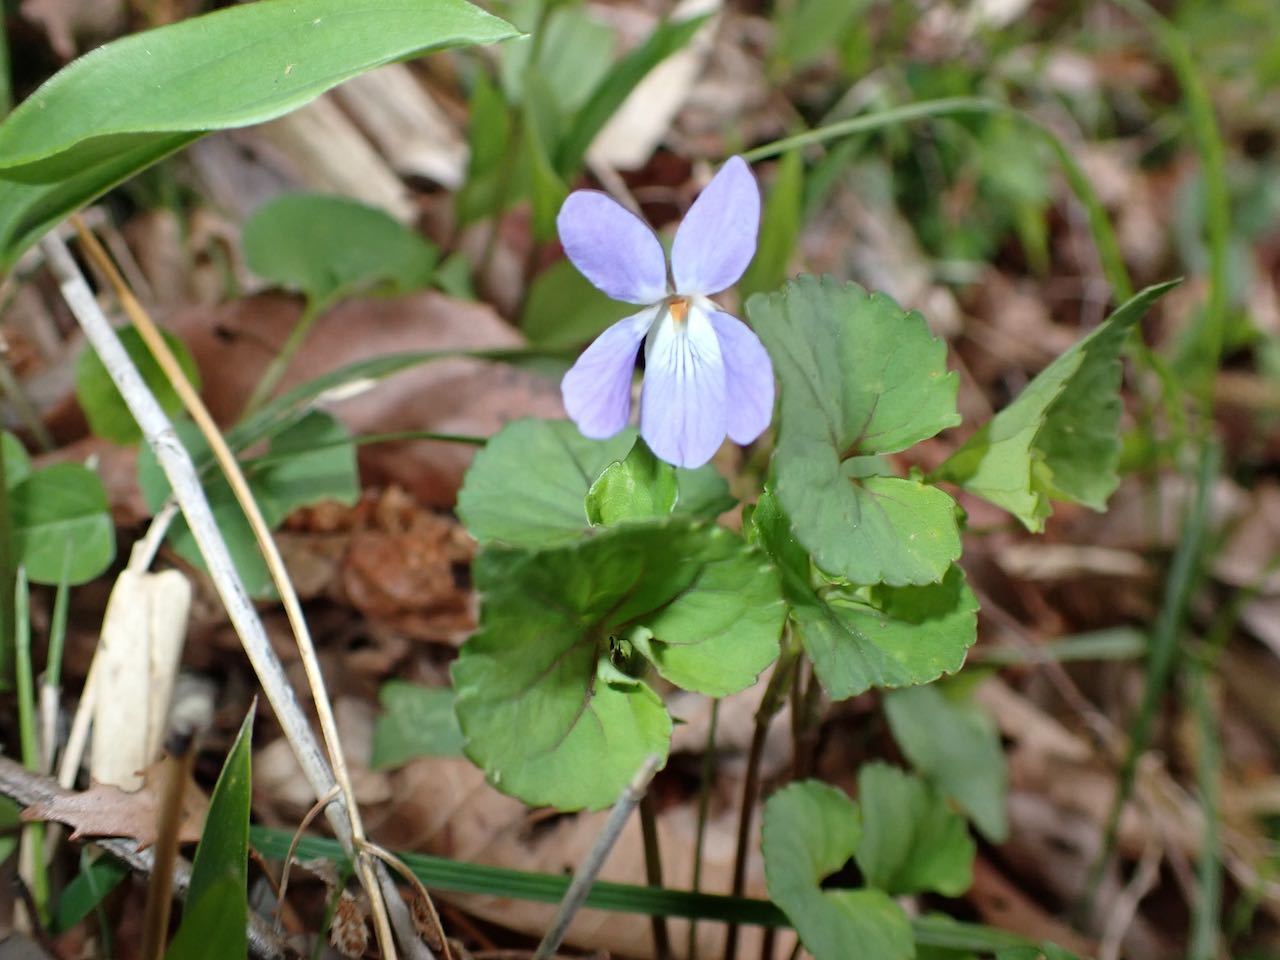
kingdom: Plantae
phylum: Tracheophyta
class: Magnoliopsida
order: Malpighiales
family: Violaceae
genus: Viola
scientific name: Viola grypoceras
